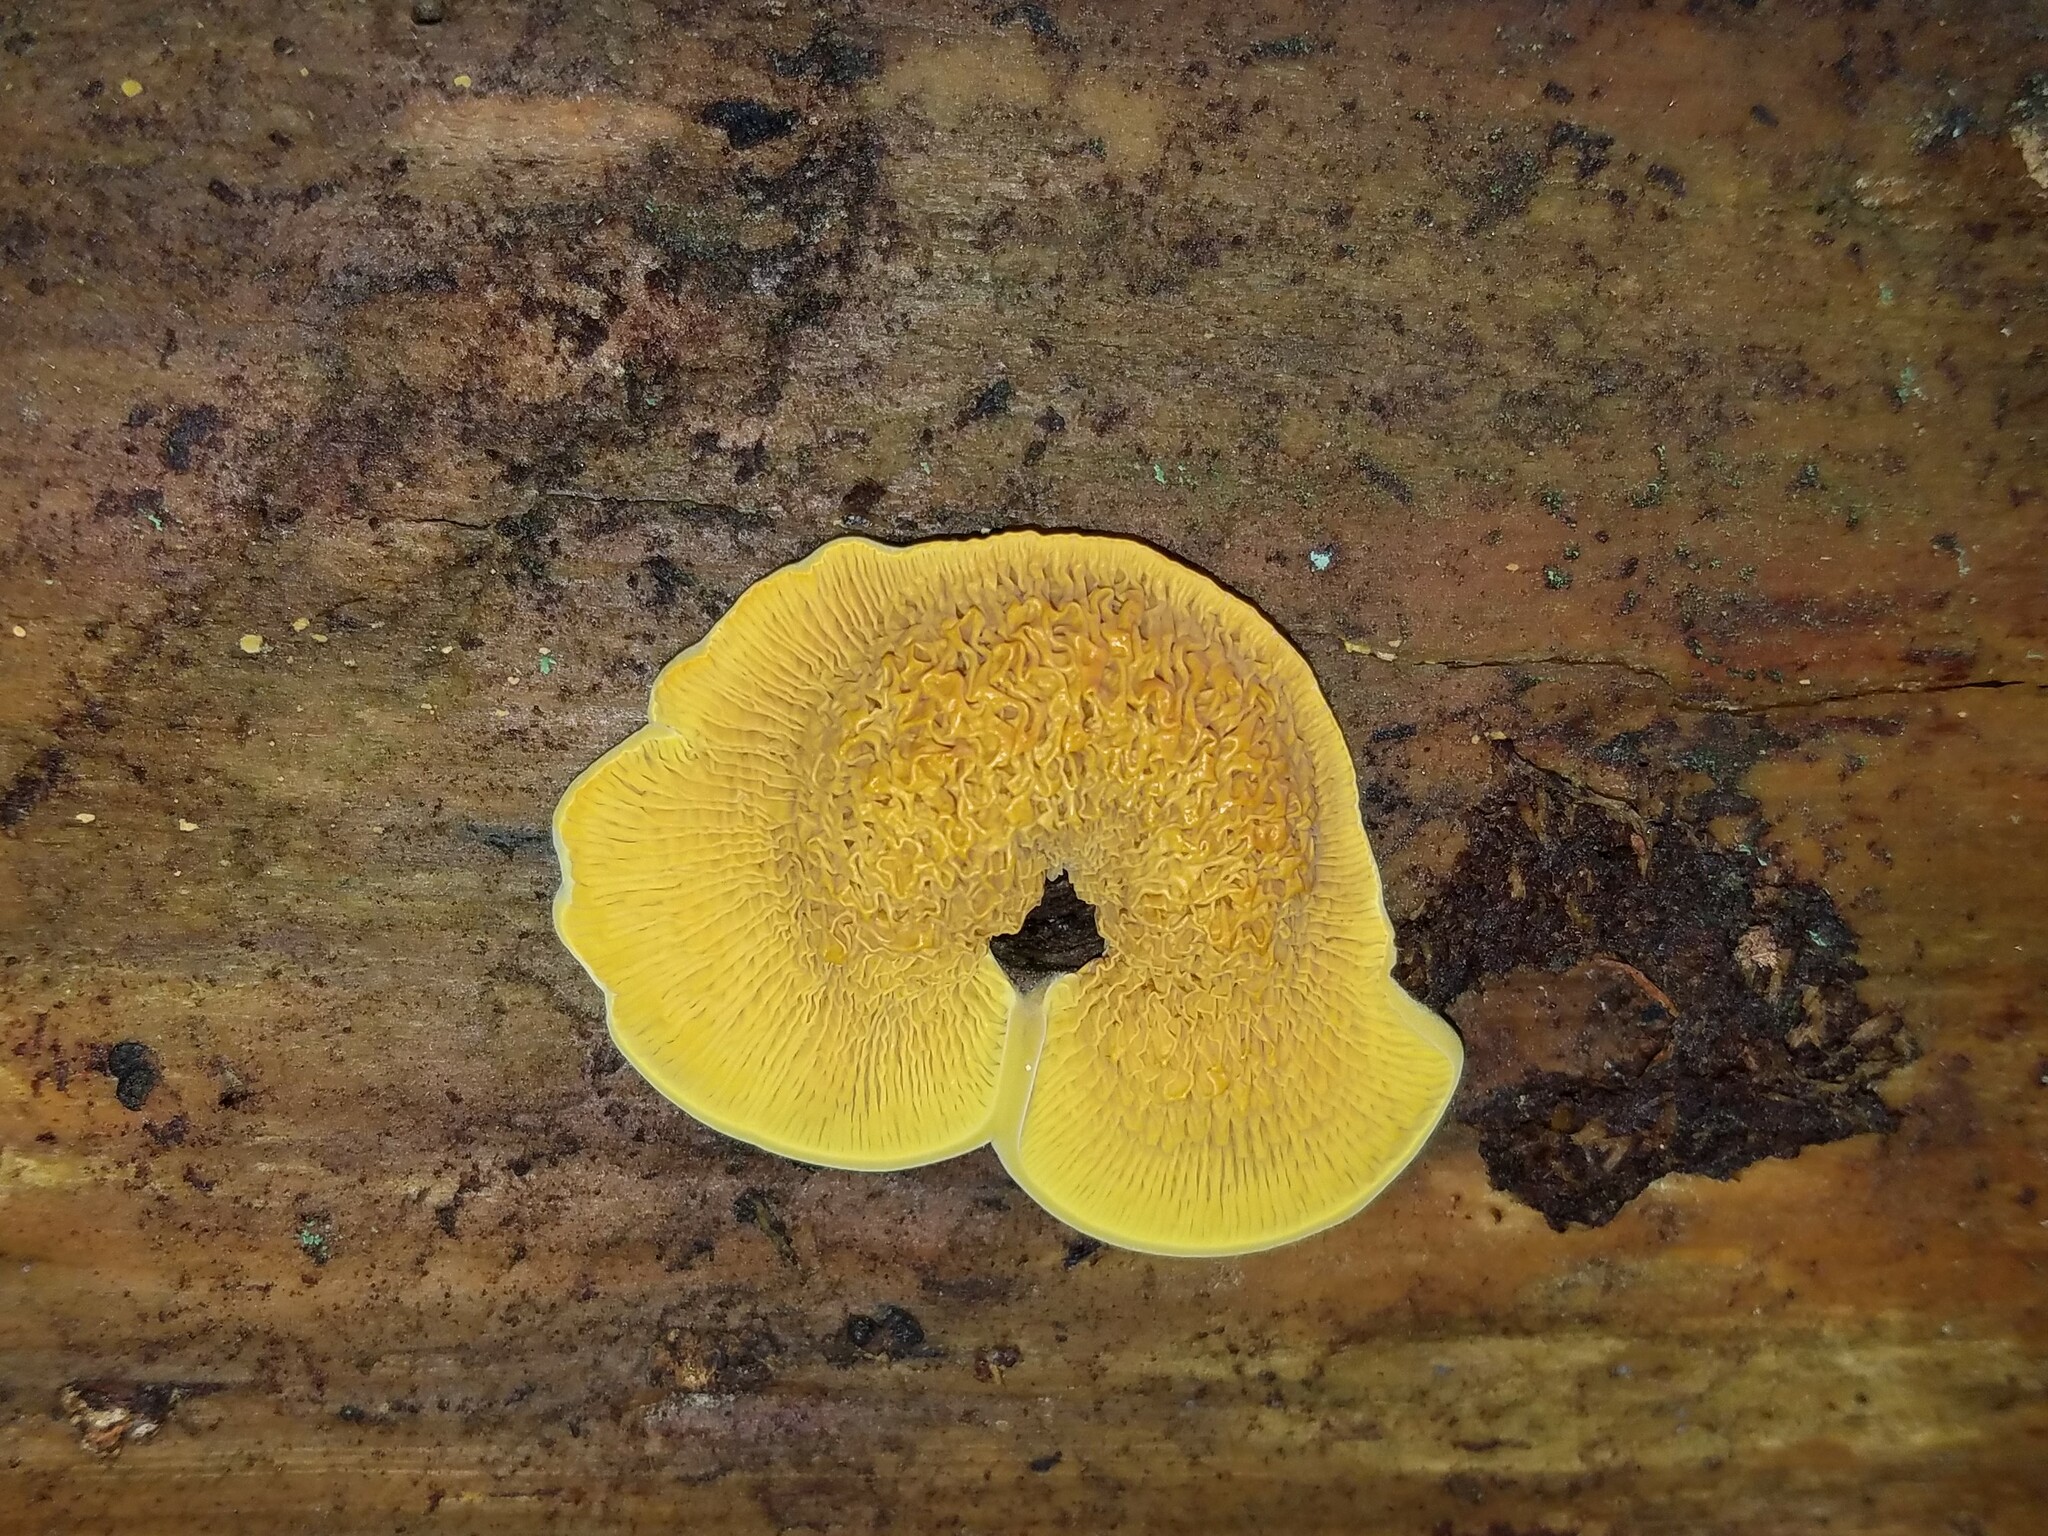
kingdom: Fungi
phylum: Basidiomycota
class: Agaricomycetes
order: Boletales
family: Paxillaceae
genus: Meiorganum
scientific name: Meiorganum curtisii
